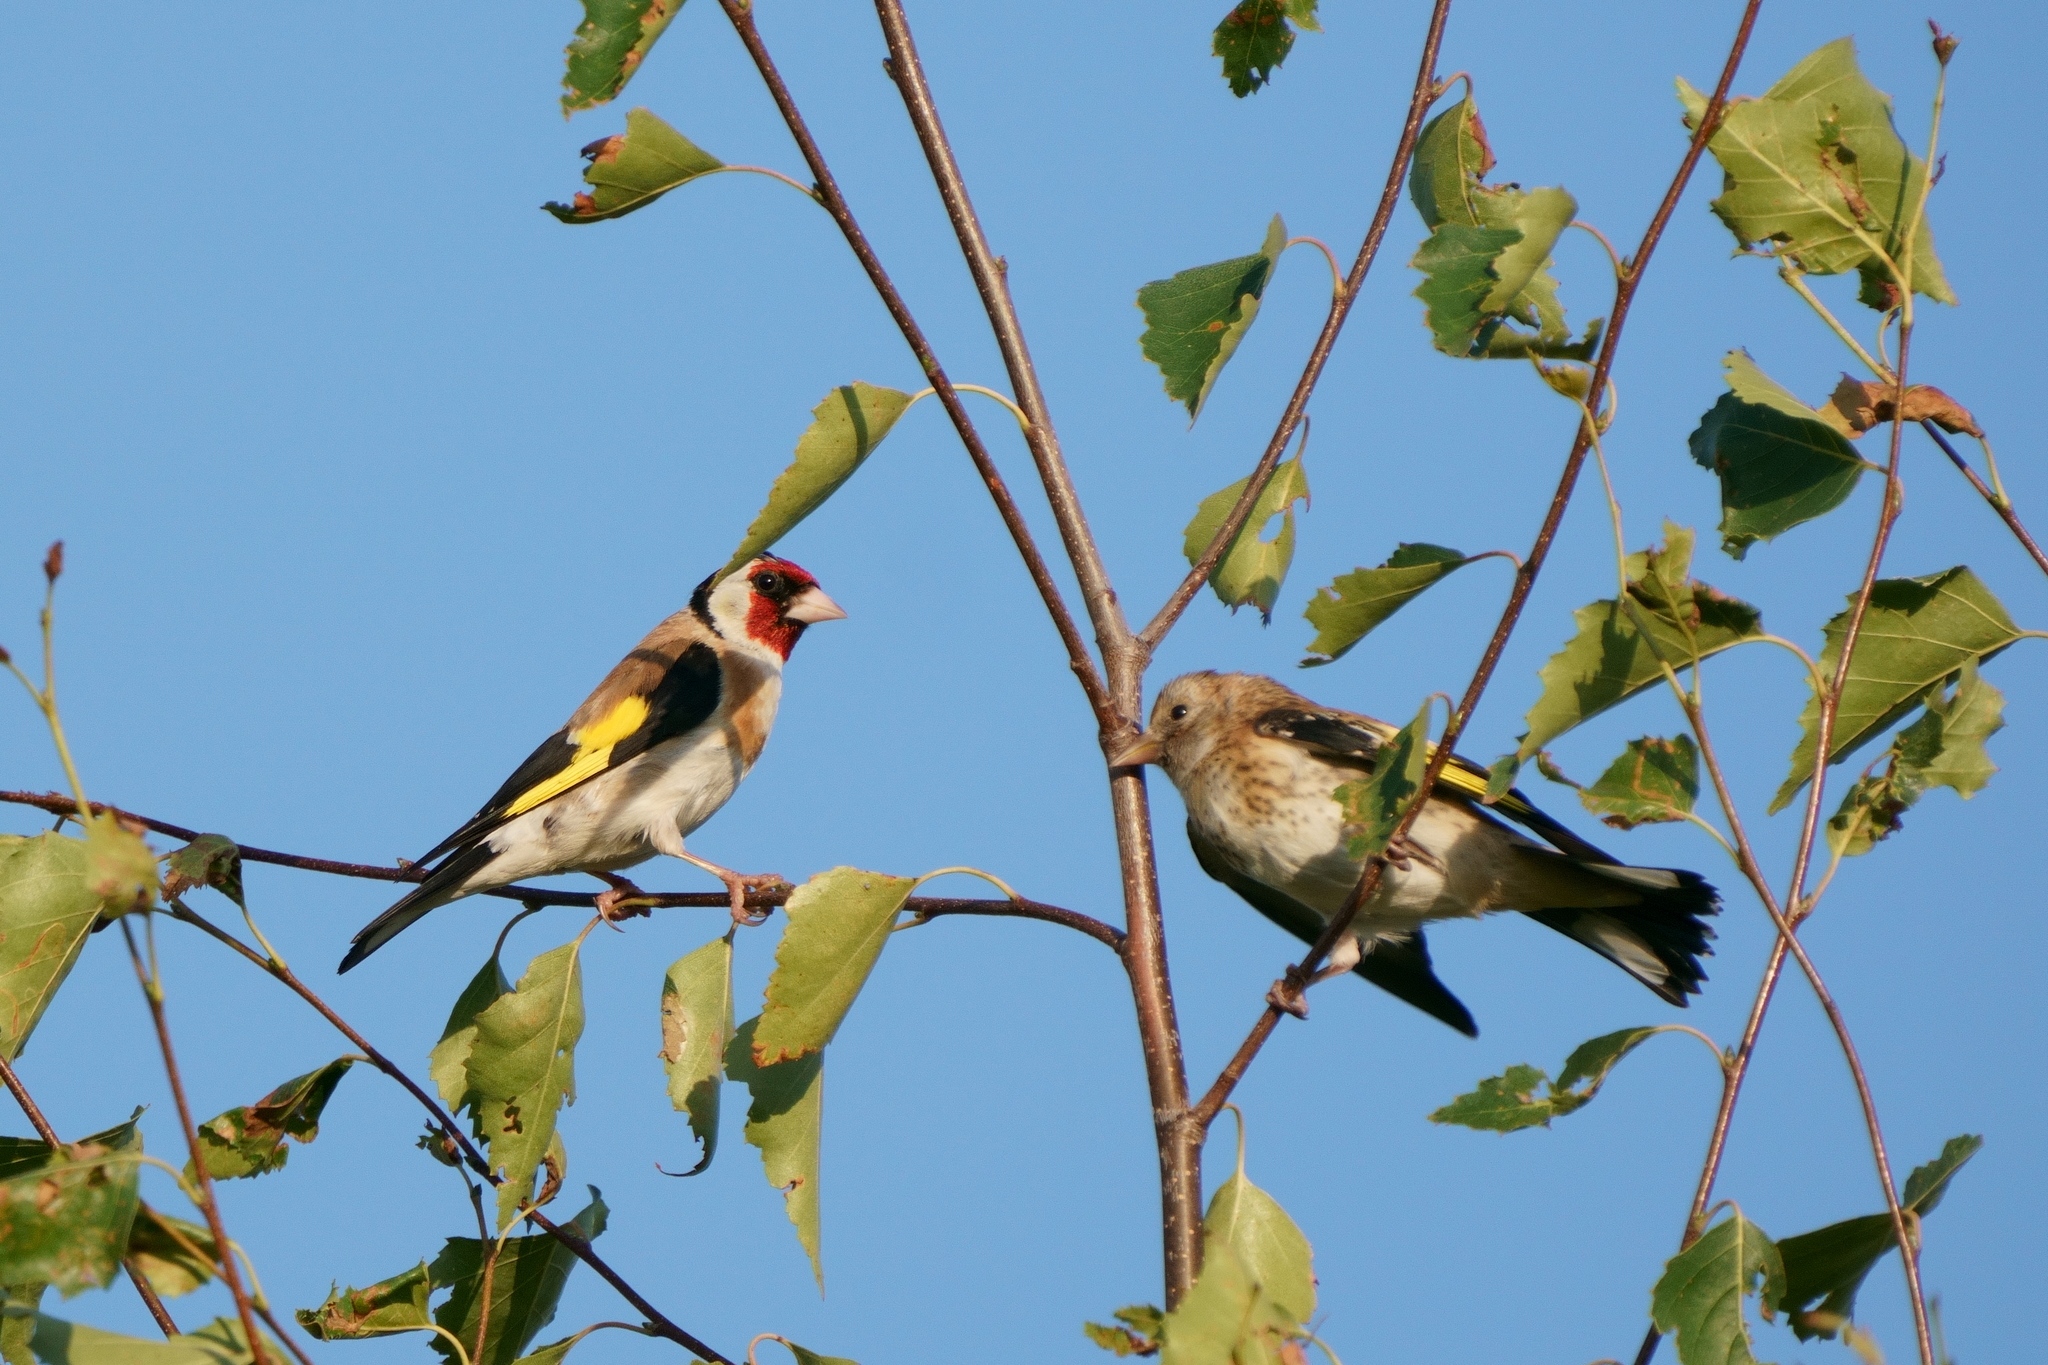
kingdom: Animalia
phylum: Chordata
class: Aves
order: Passeriformes
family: Fringillidae
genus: Carduelis
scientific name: Carduelis carduelis
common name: European goldfinch
